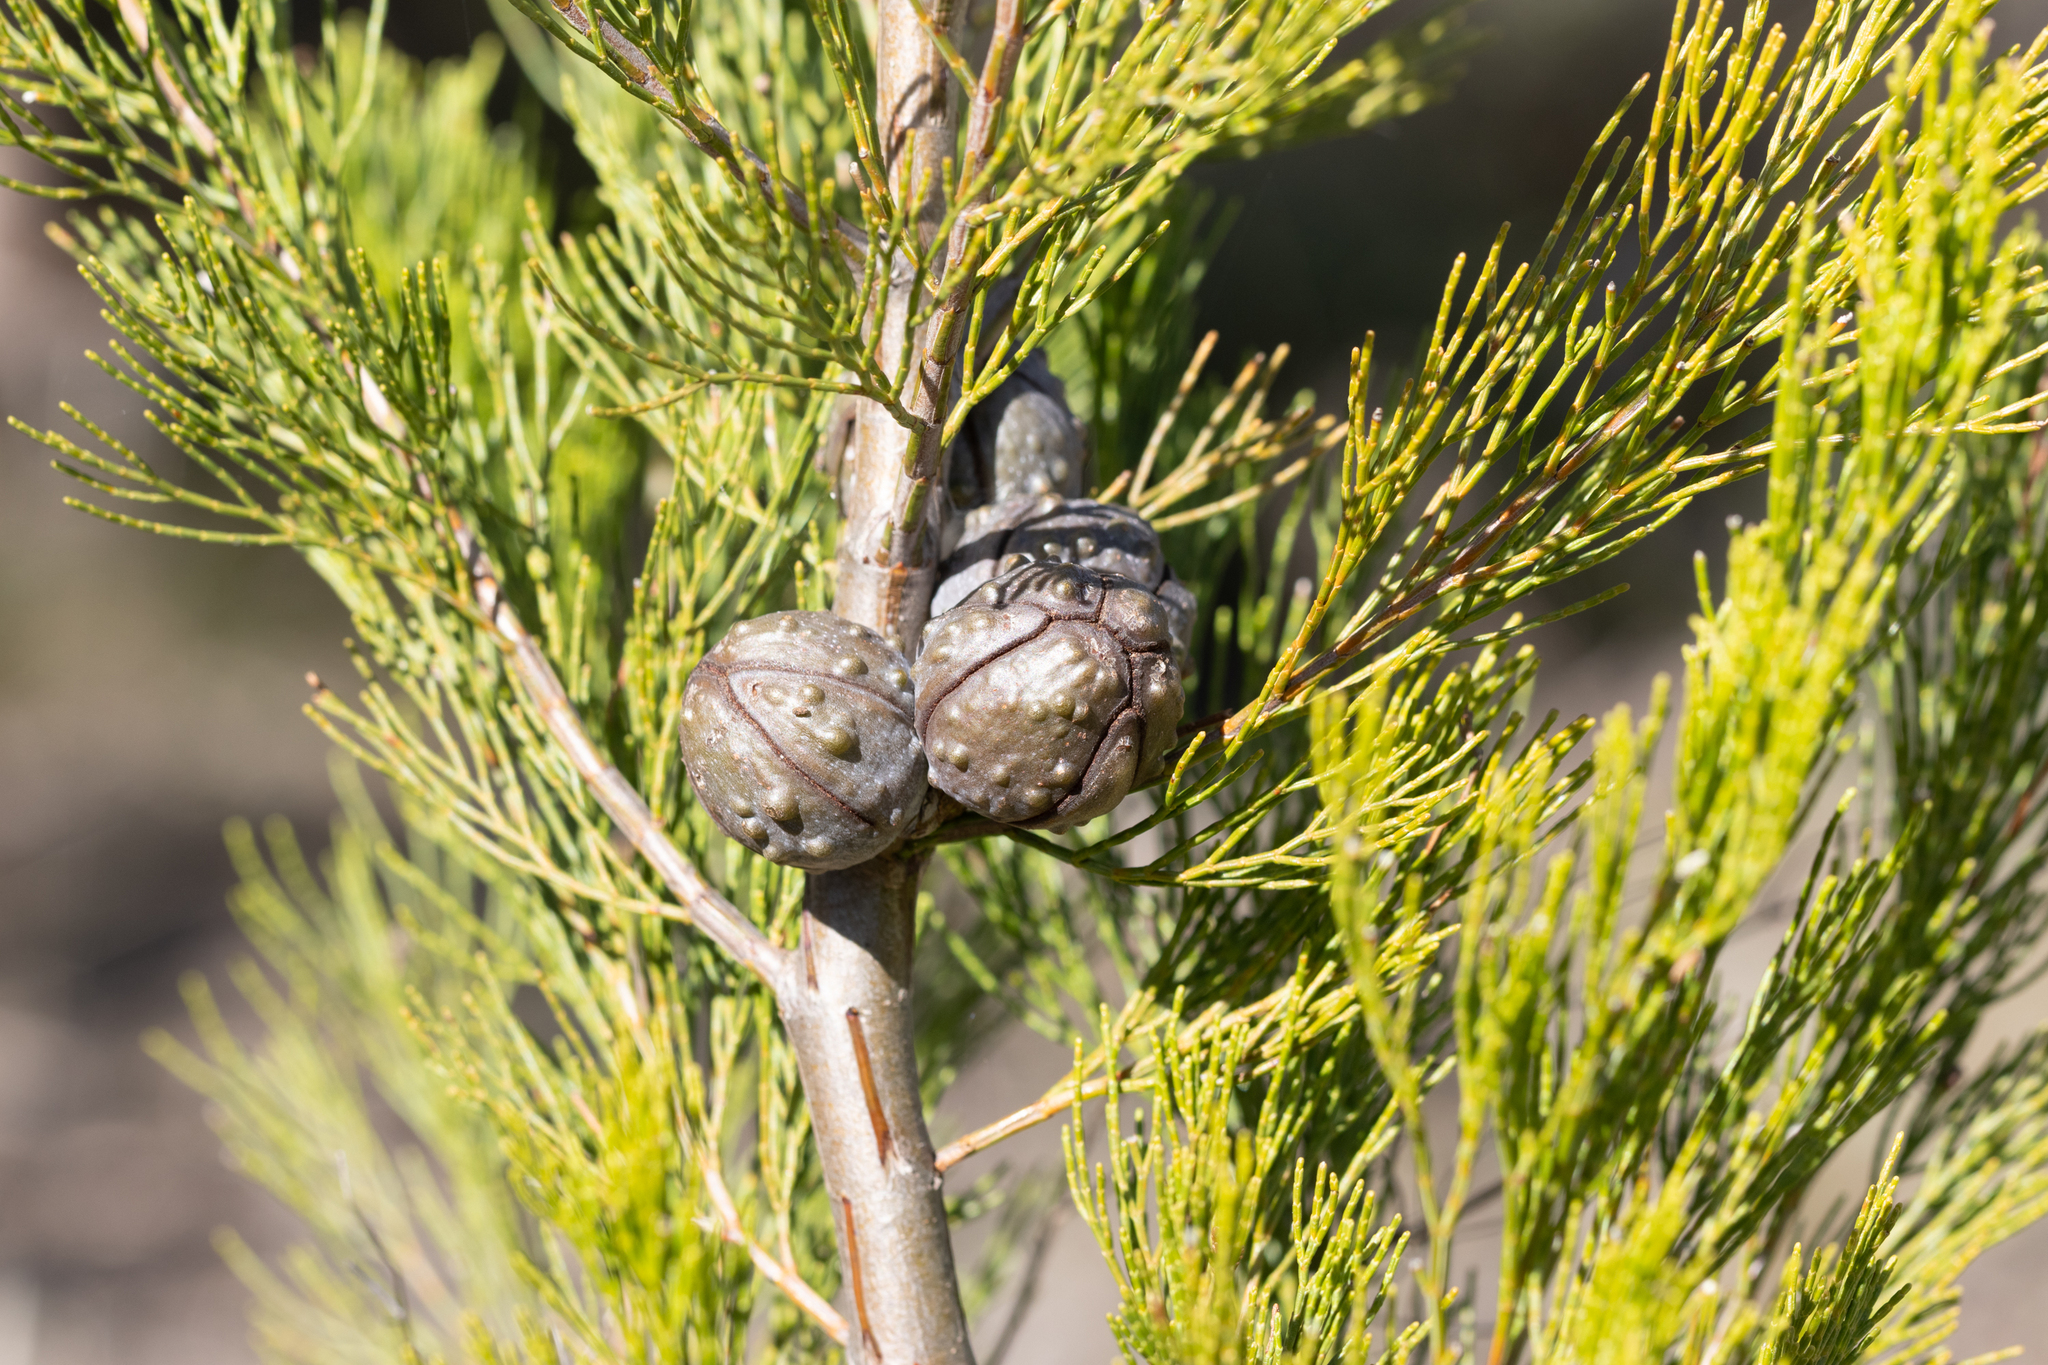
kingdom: Plantae
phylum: Tracheophyta
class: Pinopsida
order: Pinales
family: Cupressaceae
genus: Callitris
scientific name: Callitris preissii
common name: Mallee pine
